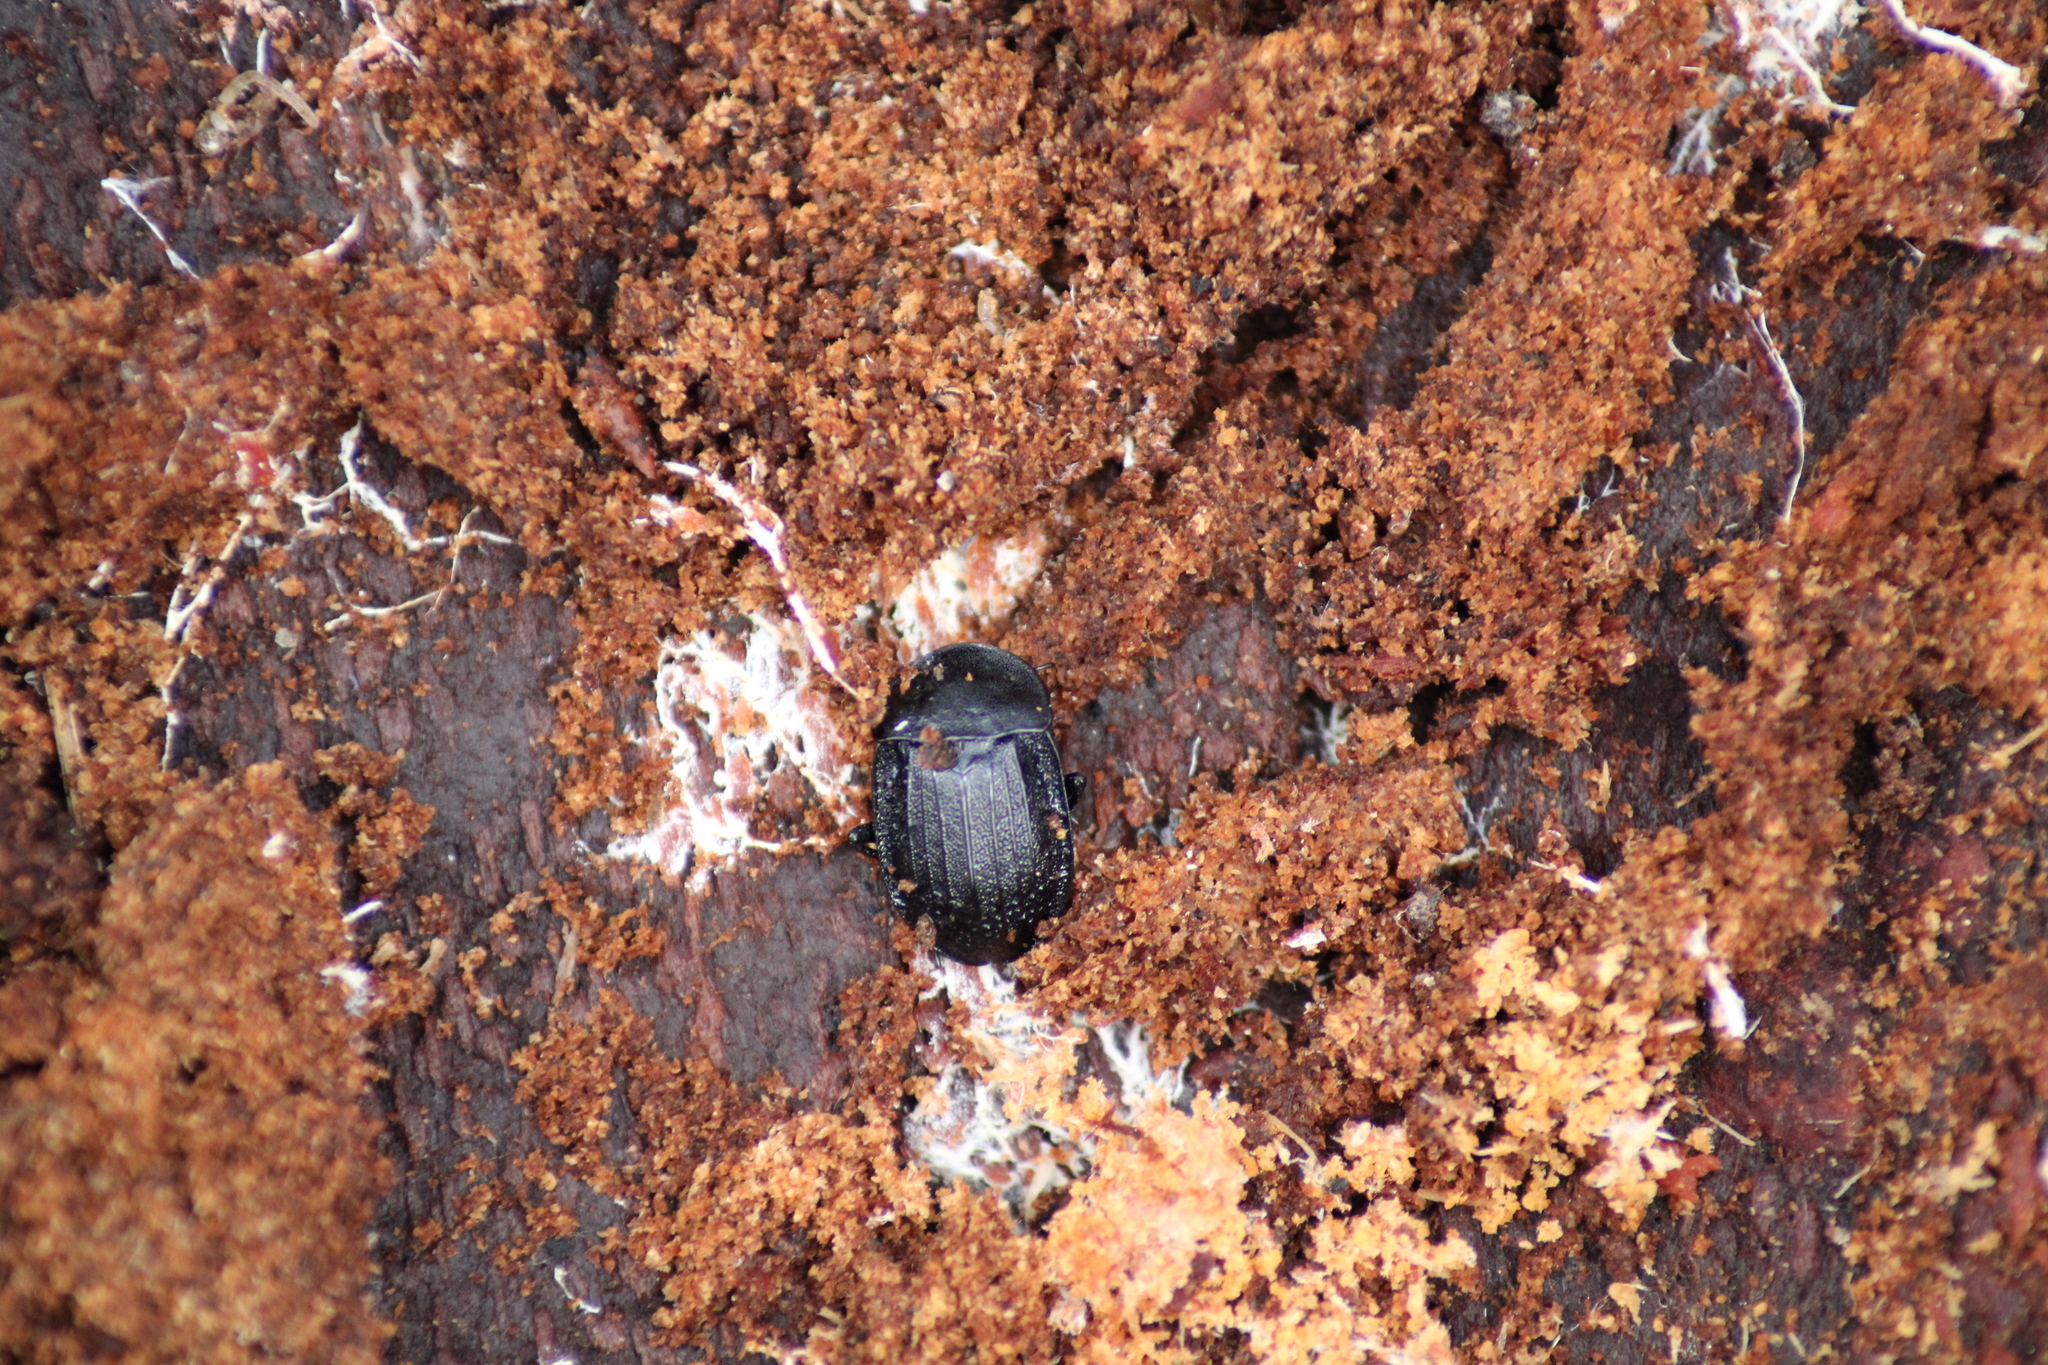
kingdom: Animalia
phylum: Arthropoda
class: Insecta
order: Coleoptera
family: Staphylinidae
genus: Silpha
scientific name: Silpha atrata
